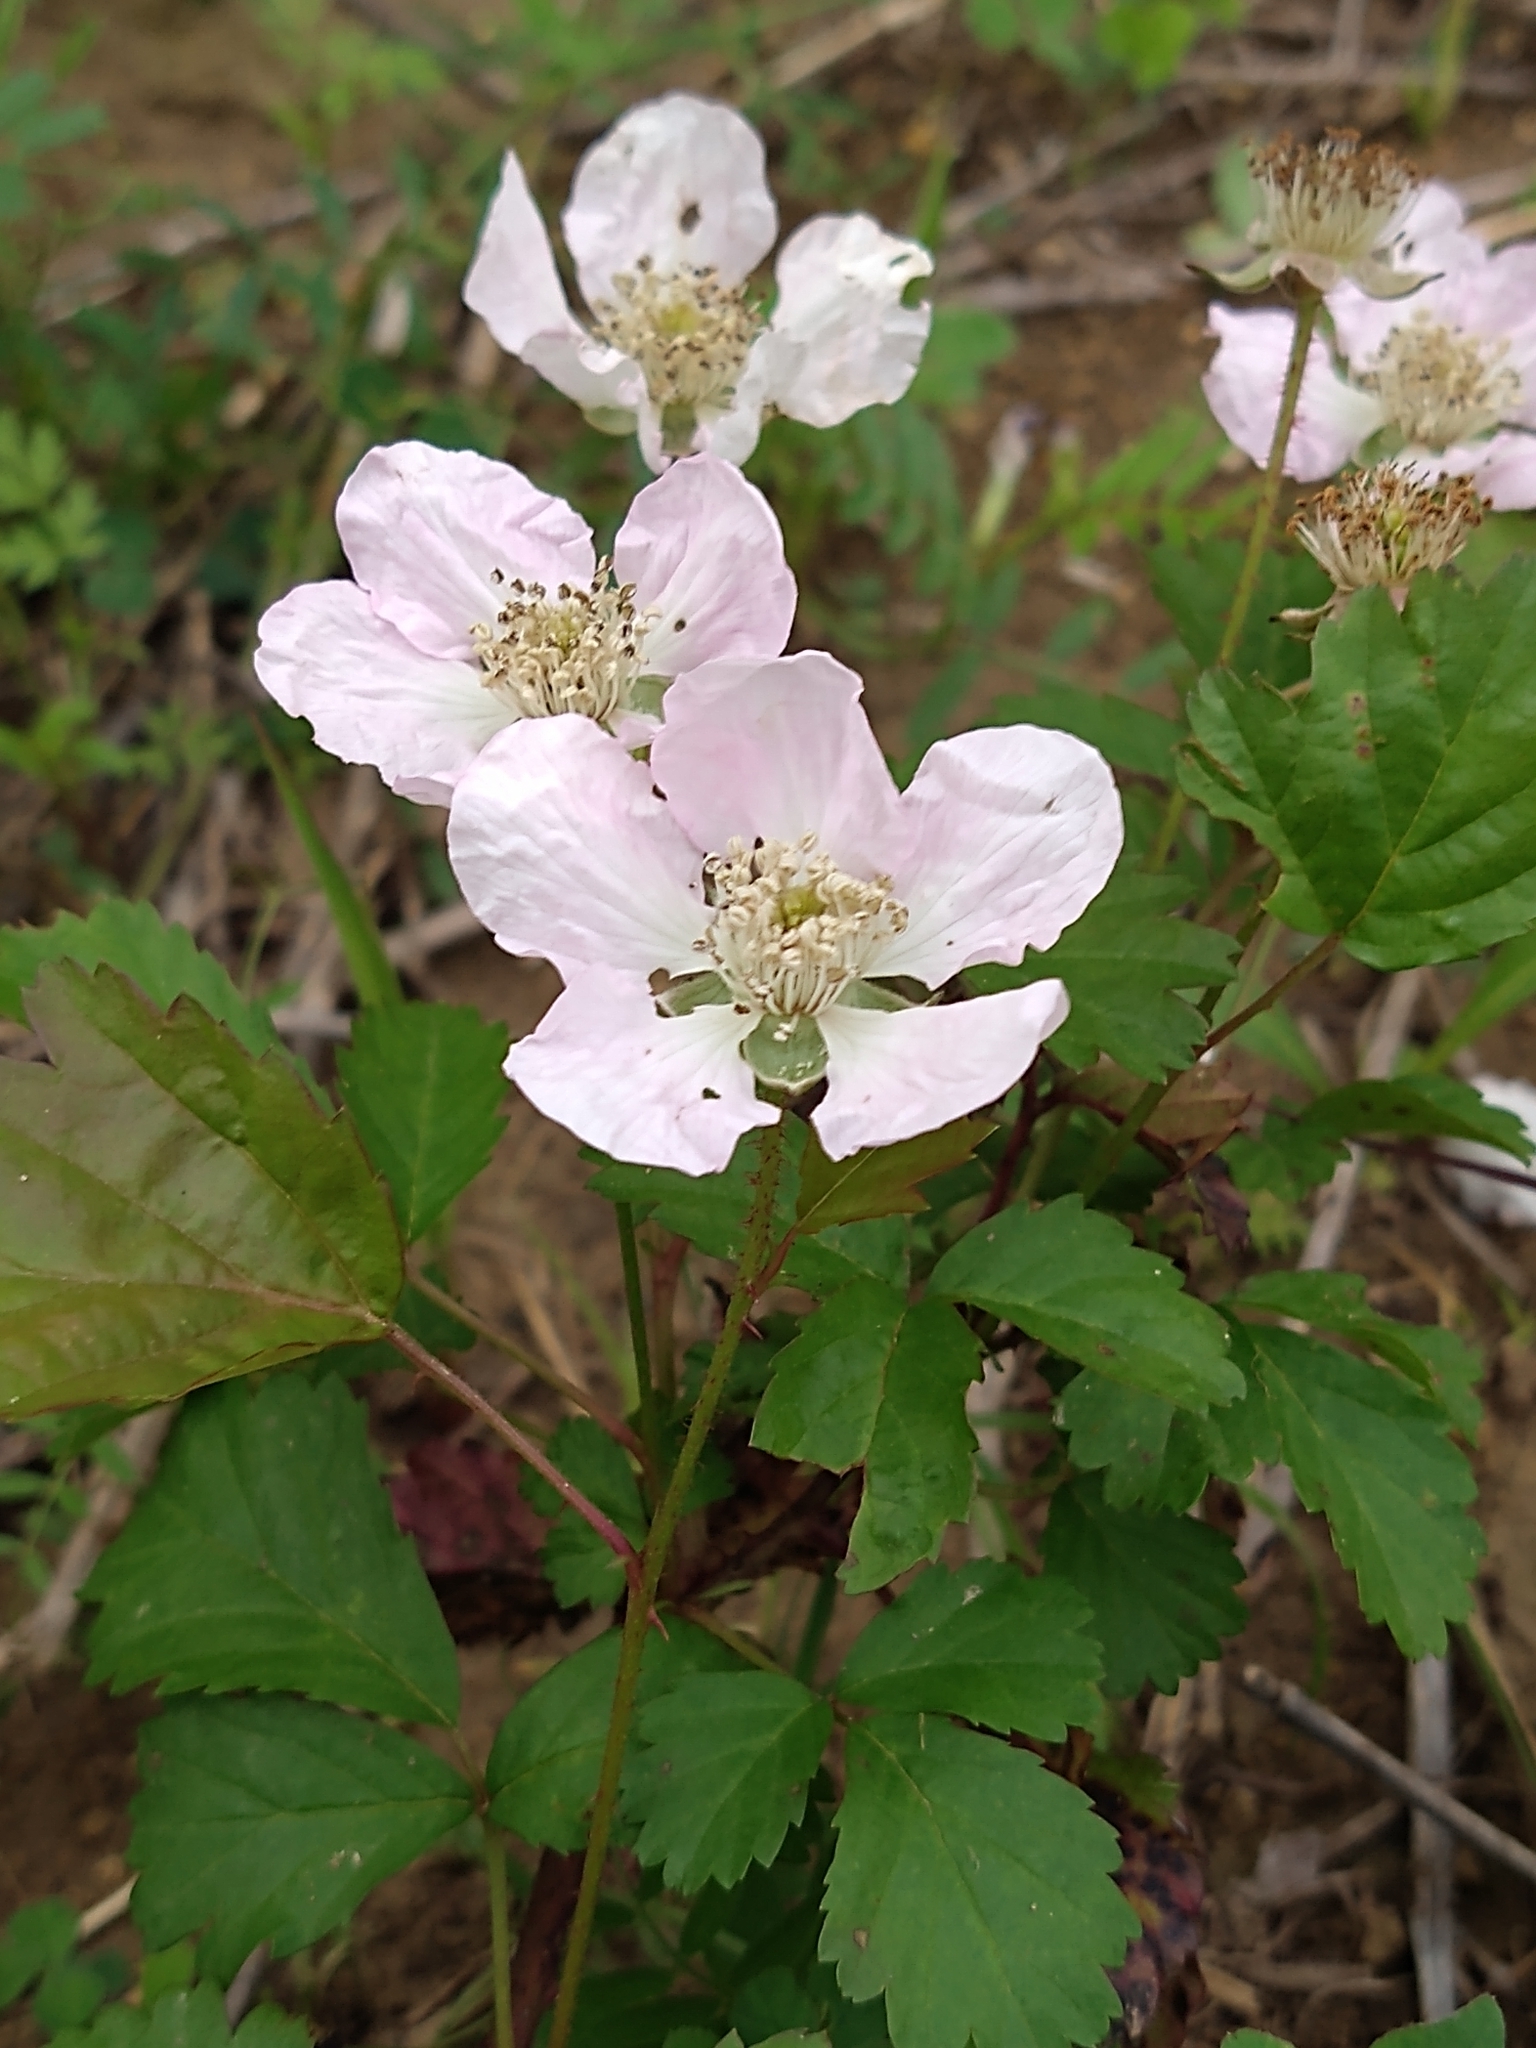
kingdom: Plantae
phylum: Tracheophyta
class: Magnoliopsida
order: Rosales
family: Rosaceae
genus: Rubus
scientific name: Rubus trivialis
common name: Southern dewberry
